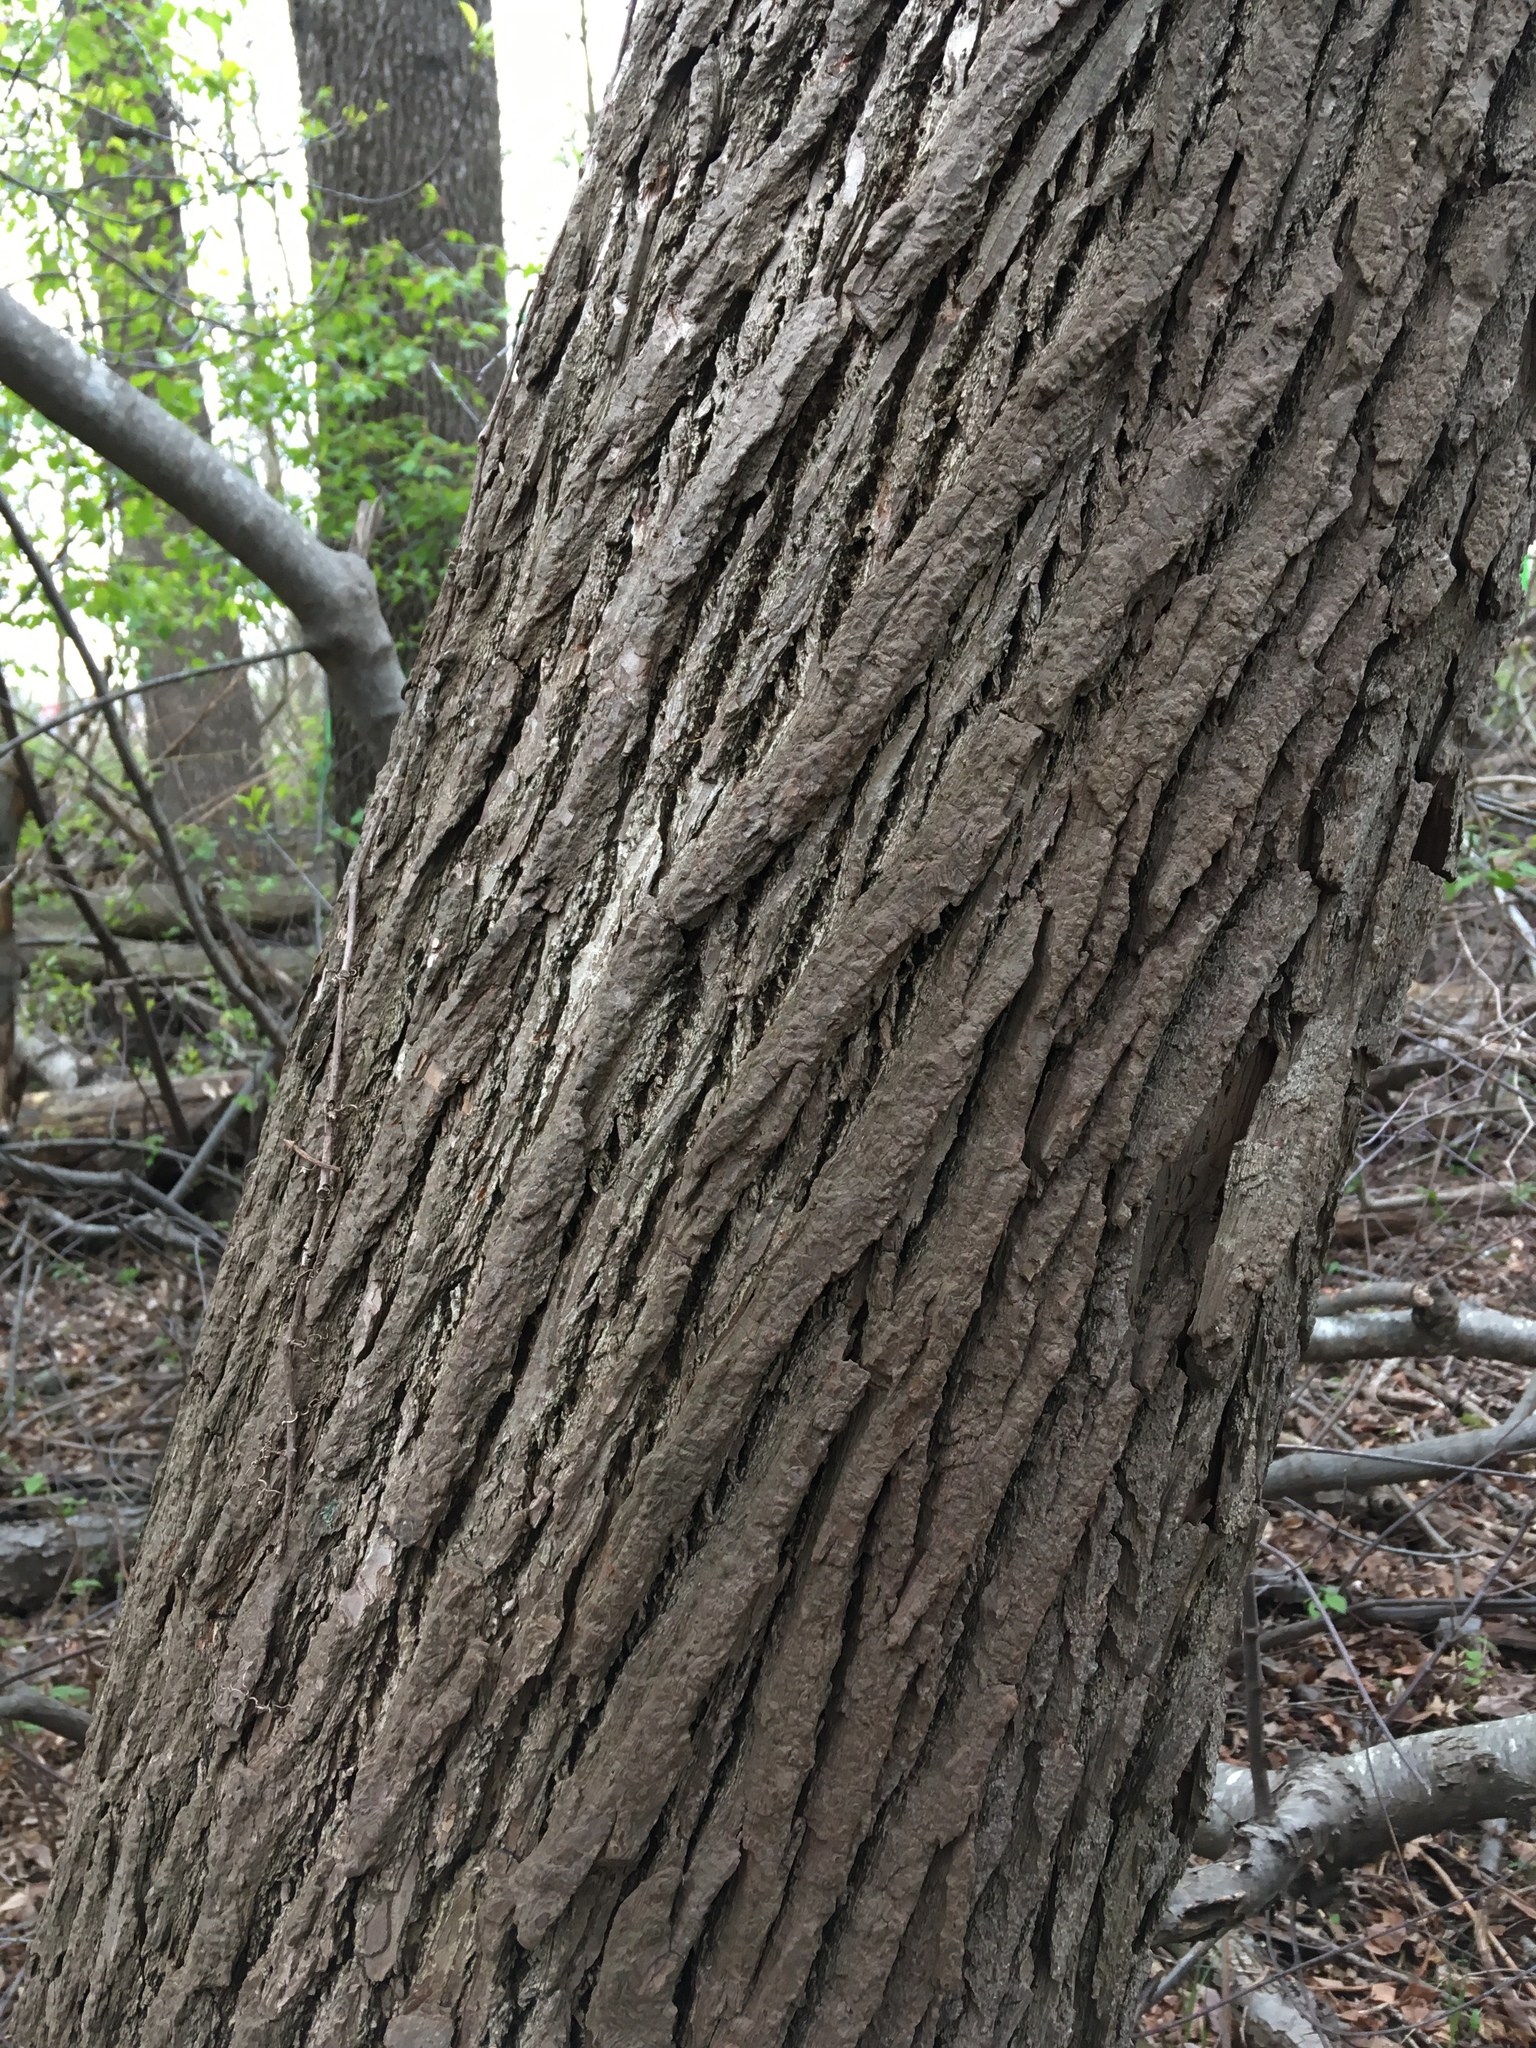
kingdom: Plantae
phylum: Tracheophyta
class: Magnoliopsida
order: Laurales
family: Lauraceae
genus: Sassafras
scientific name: Sassafras albidum
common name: Sassafras
